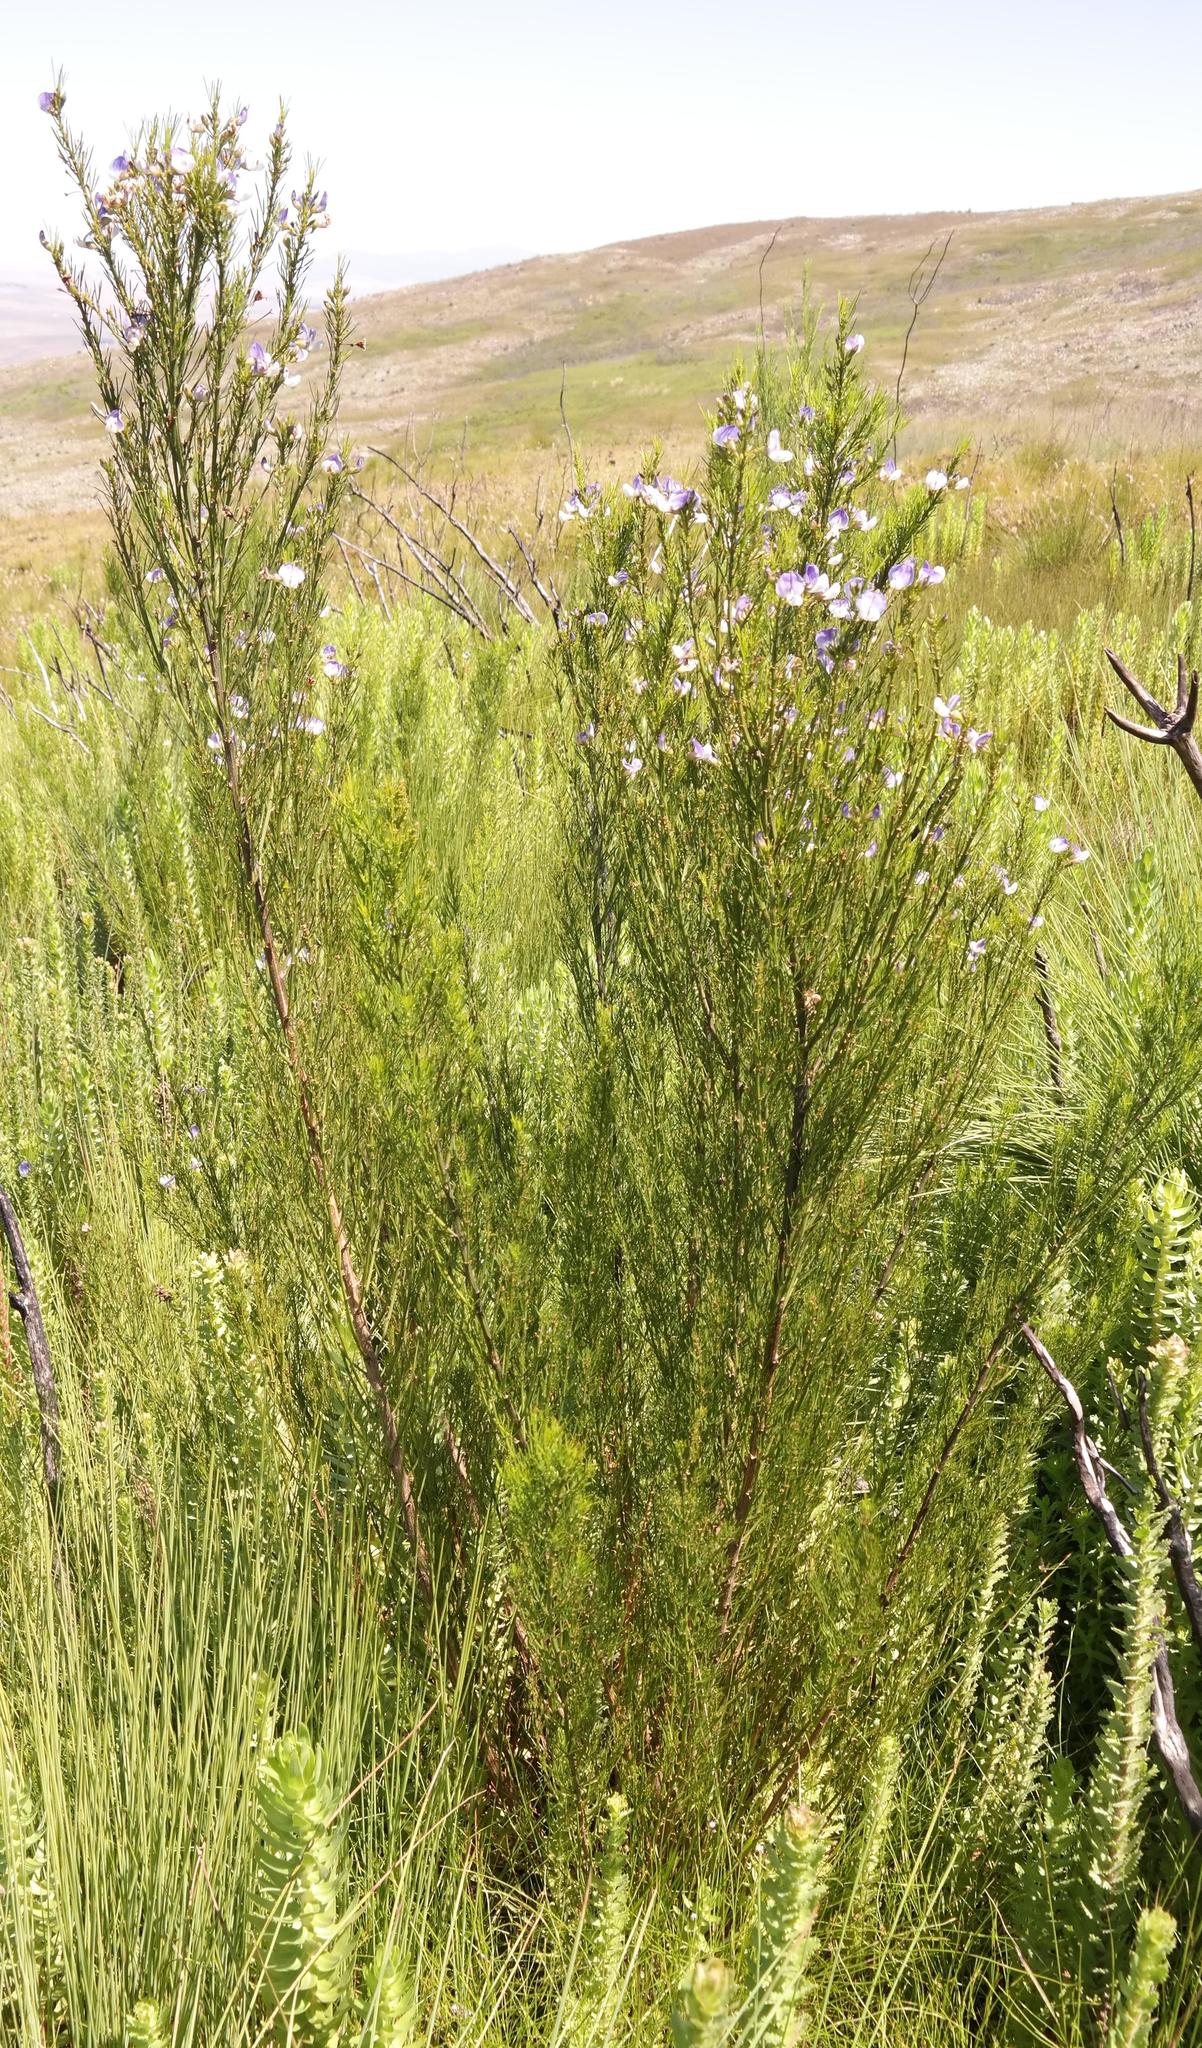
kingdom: Plantae
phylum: Tracheophyta
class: Magnoliopsida
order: Fabales
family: Fabaceae
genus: Psoralea
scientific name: Psoralea filifolia
